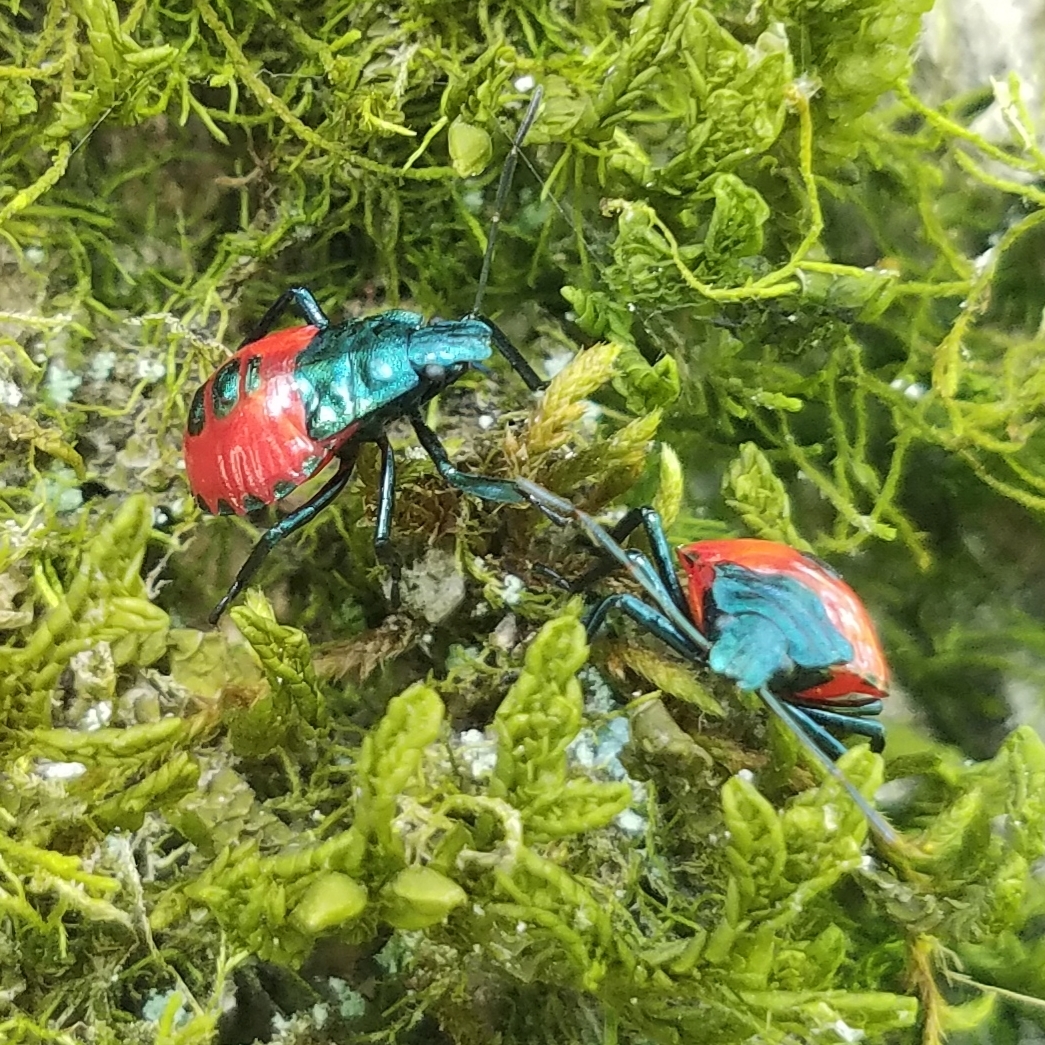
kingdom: Animalia
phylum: Arthropoda
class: Insecta
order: Hemiptera
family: Pentatomidae
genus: Euthyrhynchus
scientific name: Euthyrhynchus floridanus
